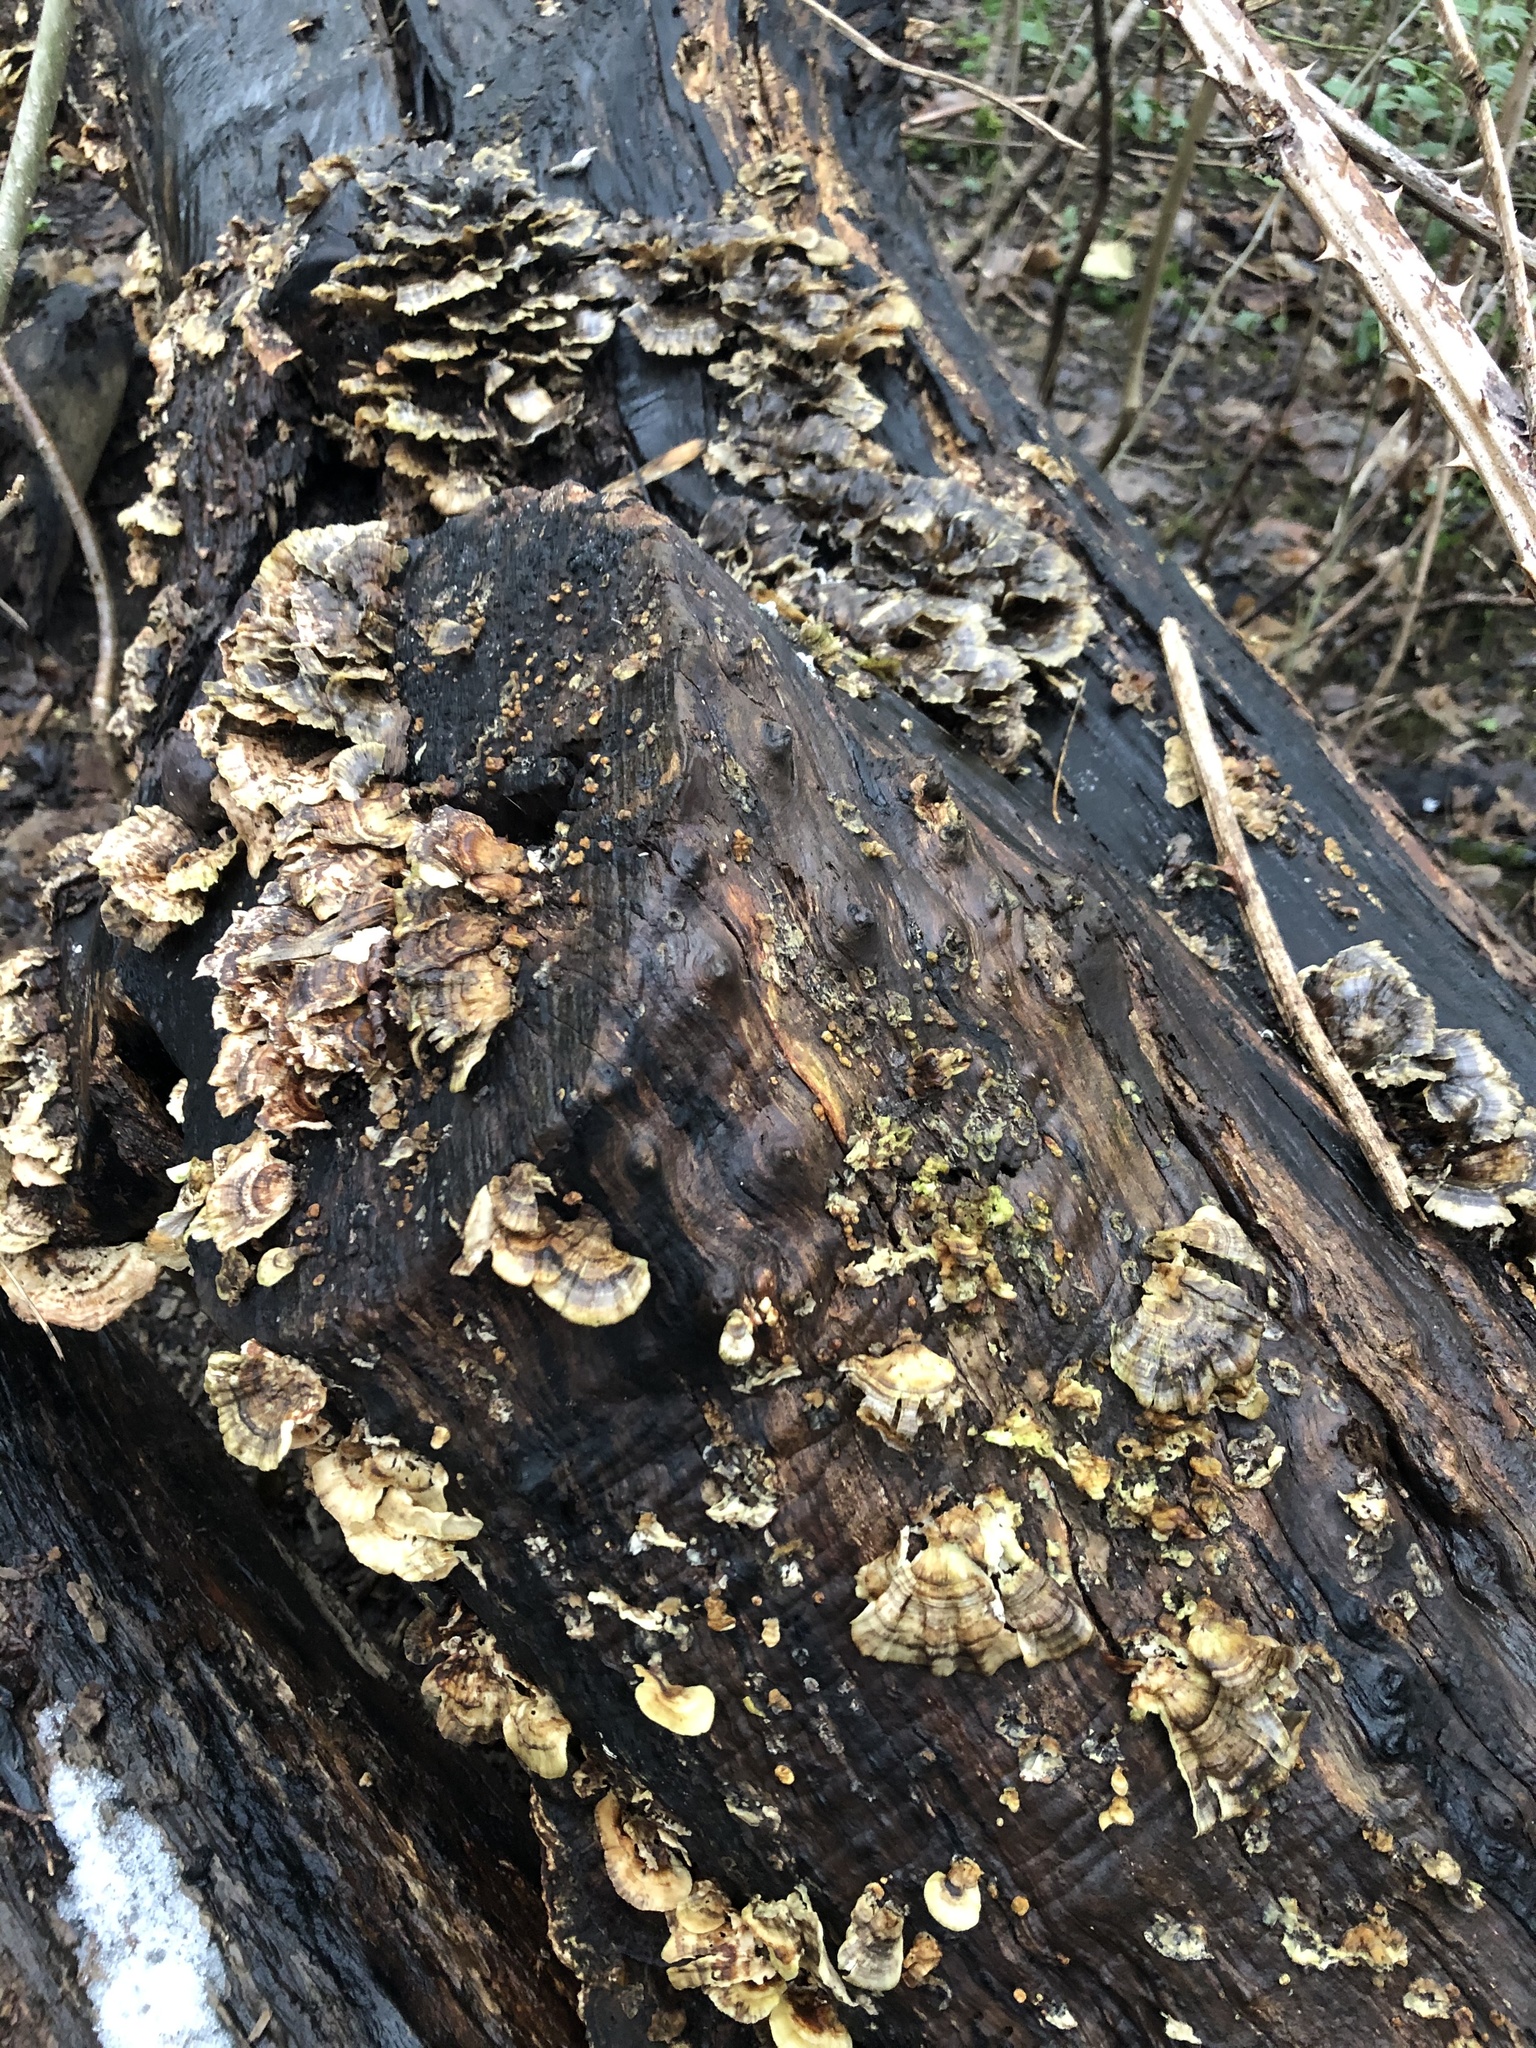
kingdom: Fungi
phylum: Basidiomycota
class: Agaricomycetes
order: Polyporales
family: Polyporaceae
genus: Trametes
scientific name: Trametes versicolor
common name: Turkeytail
